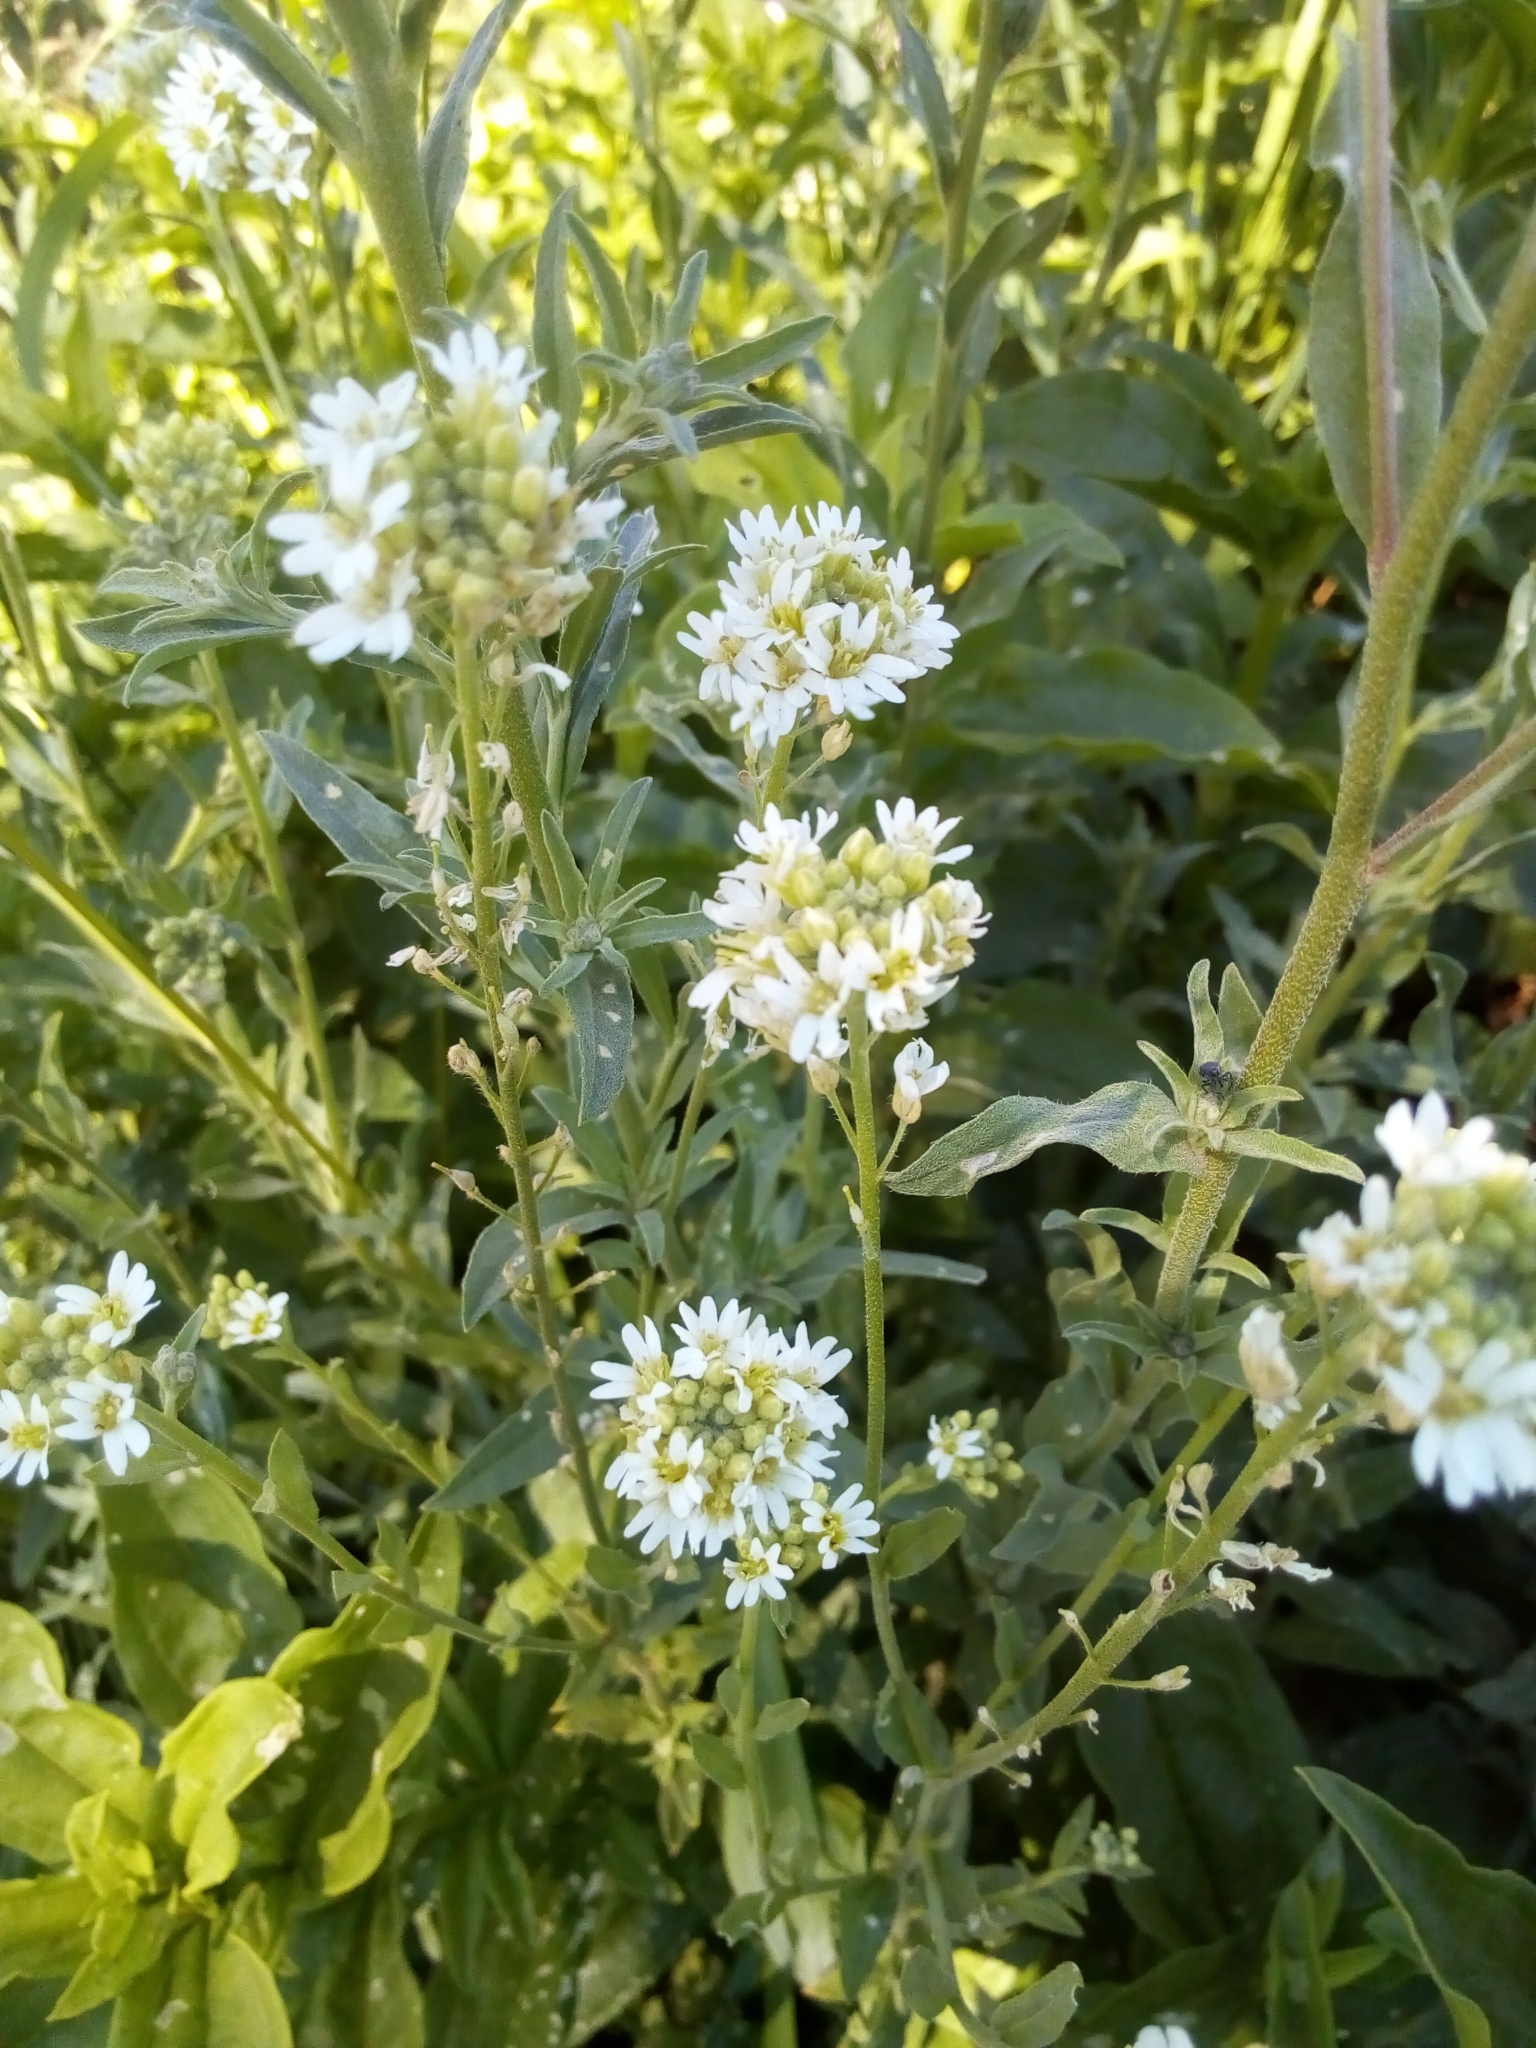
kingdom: Plantae
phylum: Tracheophyta
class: Magnoliopsida
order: Brassicales
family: Brassicaceae
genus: Berteroa
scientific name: Berteroa incana
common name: Hoary alison
